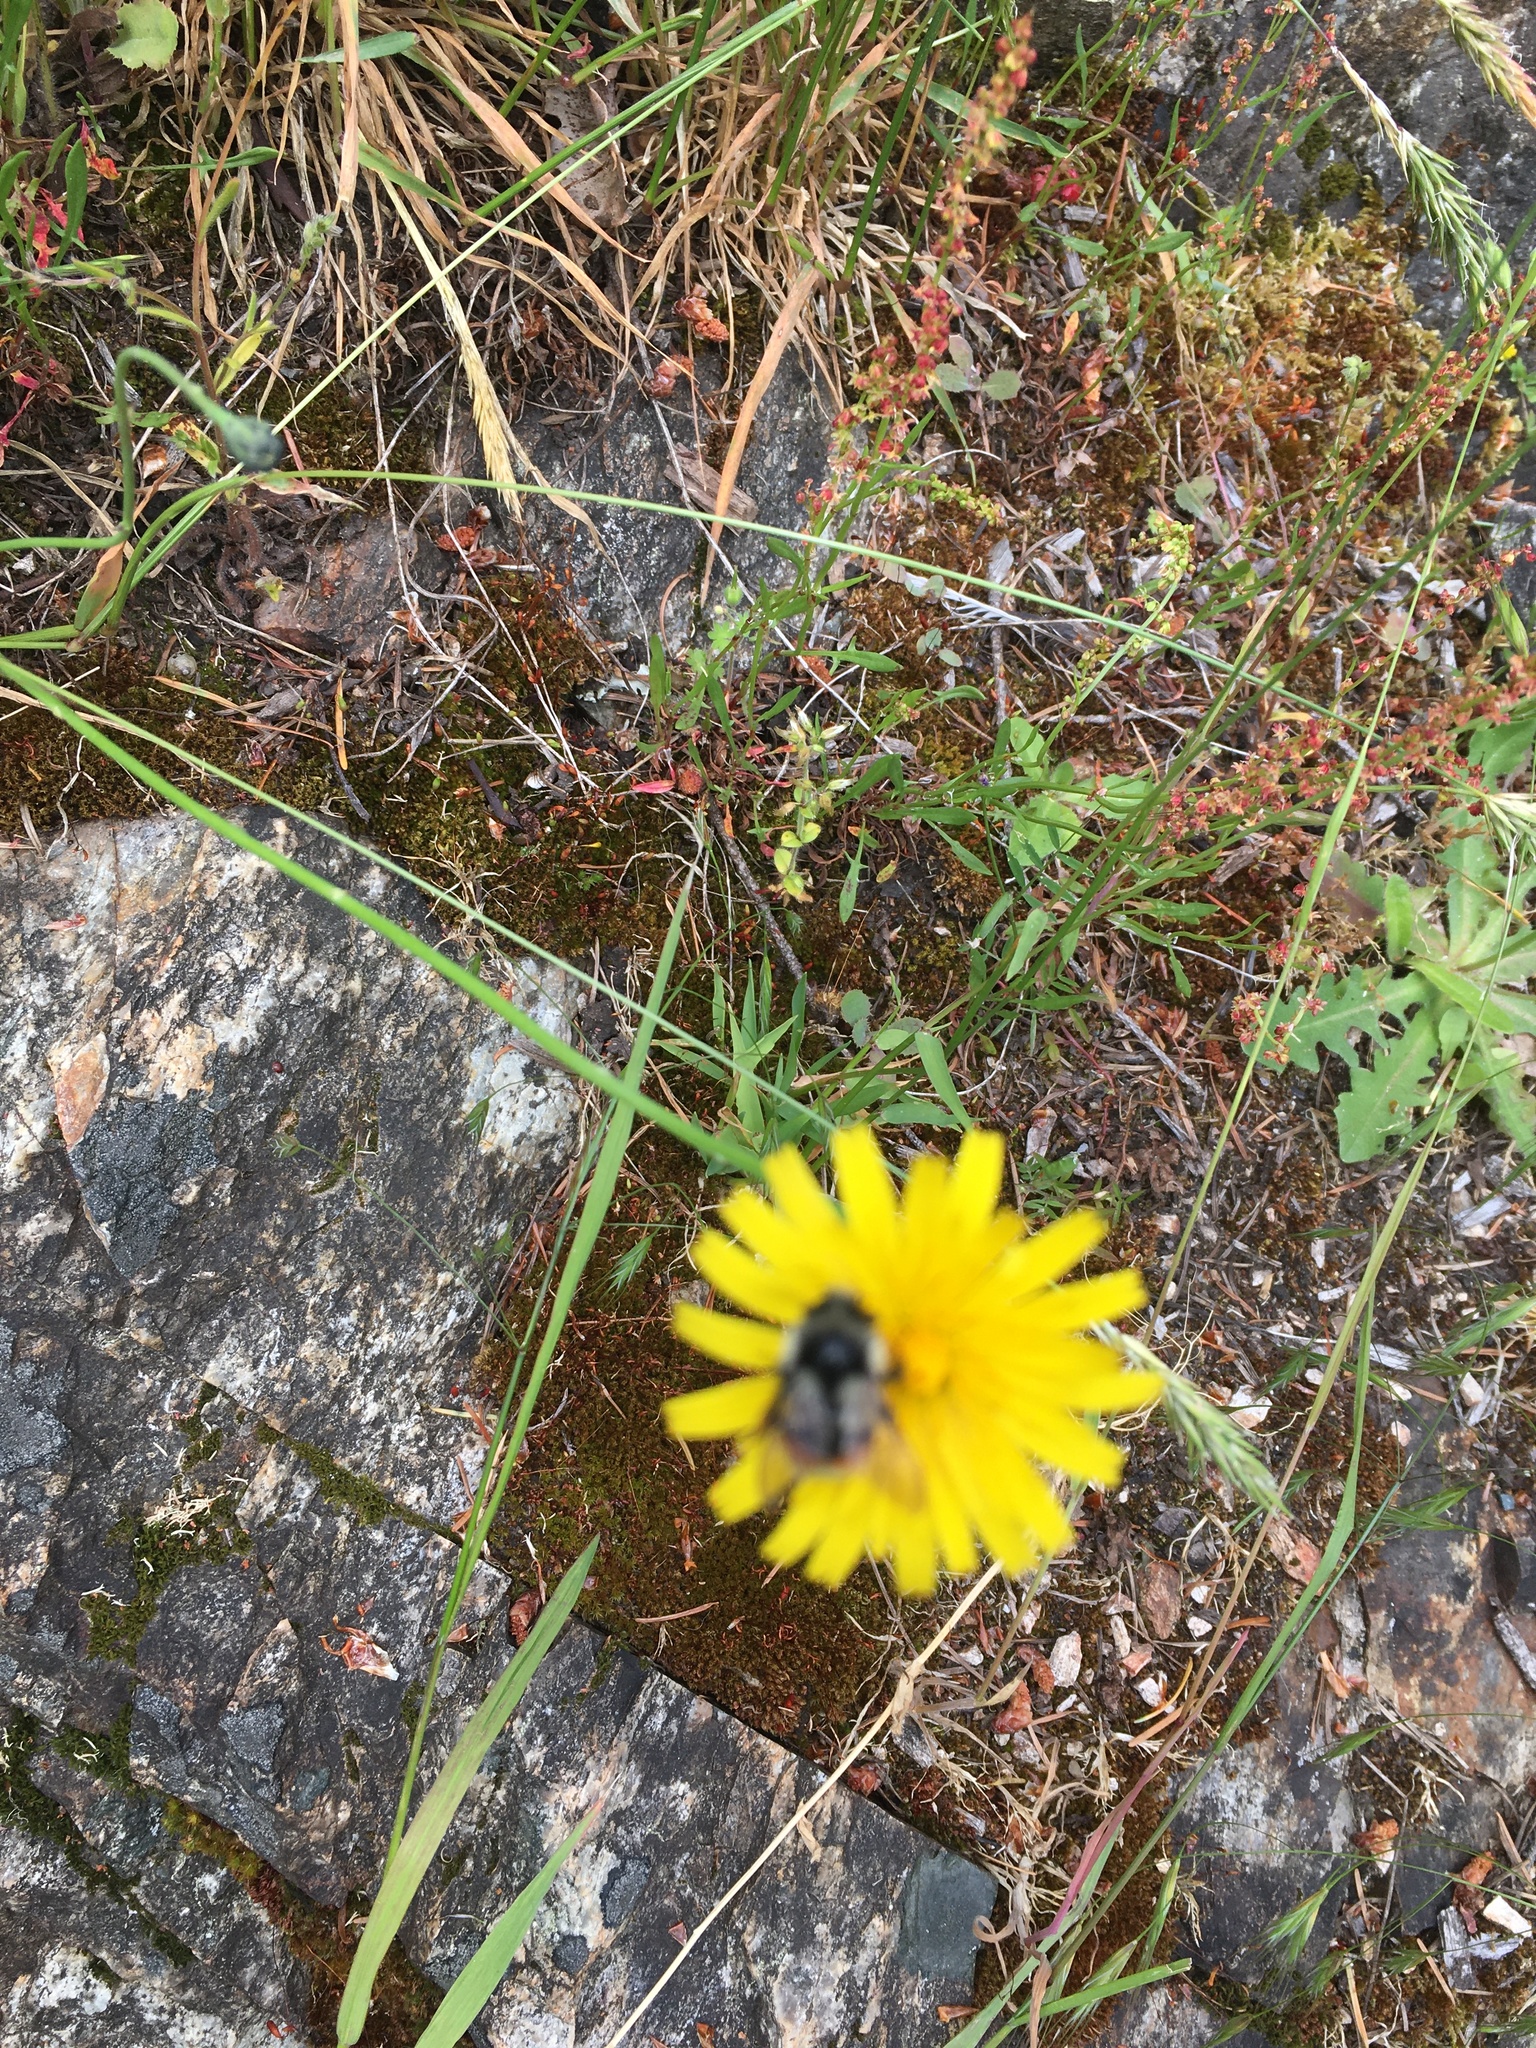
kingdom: Animalia
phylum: Arthropoda
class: Insecta
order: Hymenoptera
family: Apidae
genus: Bombus
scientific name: Bombus vancouverensis
